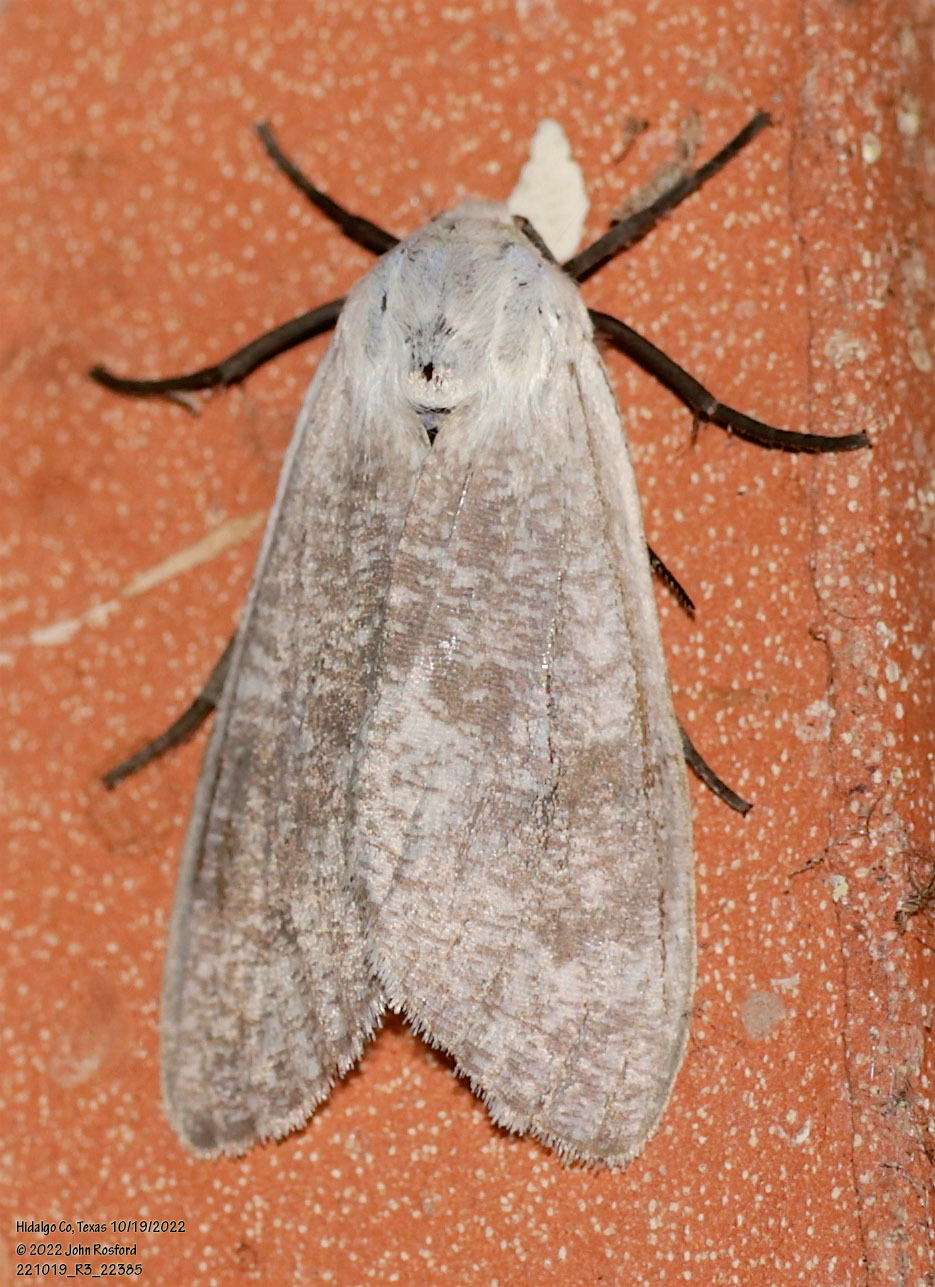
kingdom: Animalia
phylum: Arthropoda
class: Insecta
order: Lepidoptera
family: Erebidae
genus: Euchaetes
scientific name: Euchaetes bolteri
